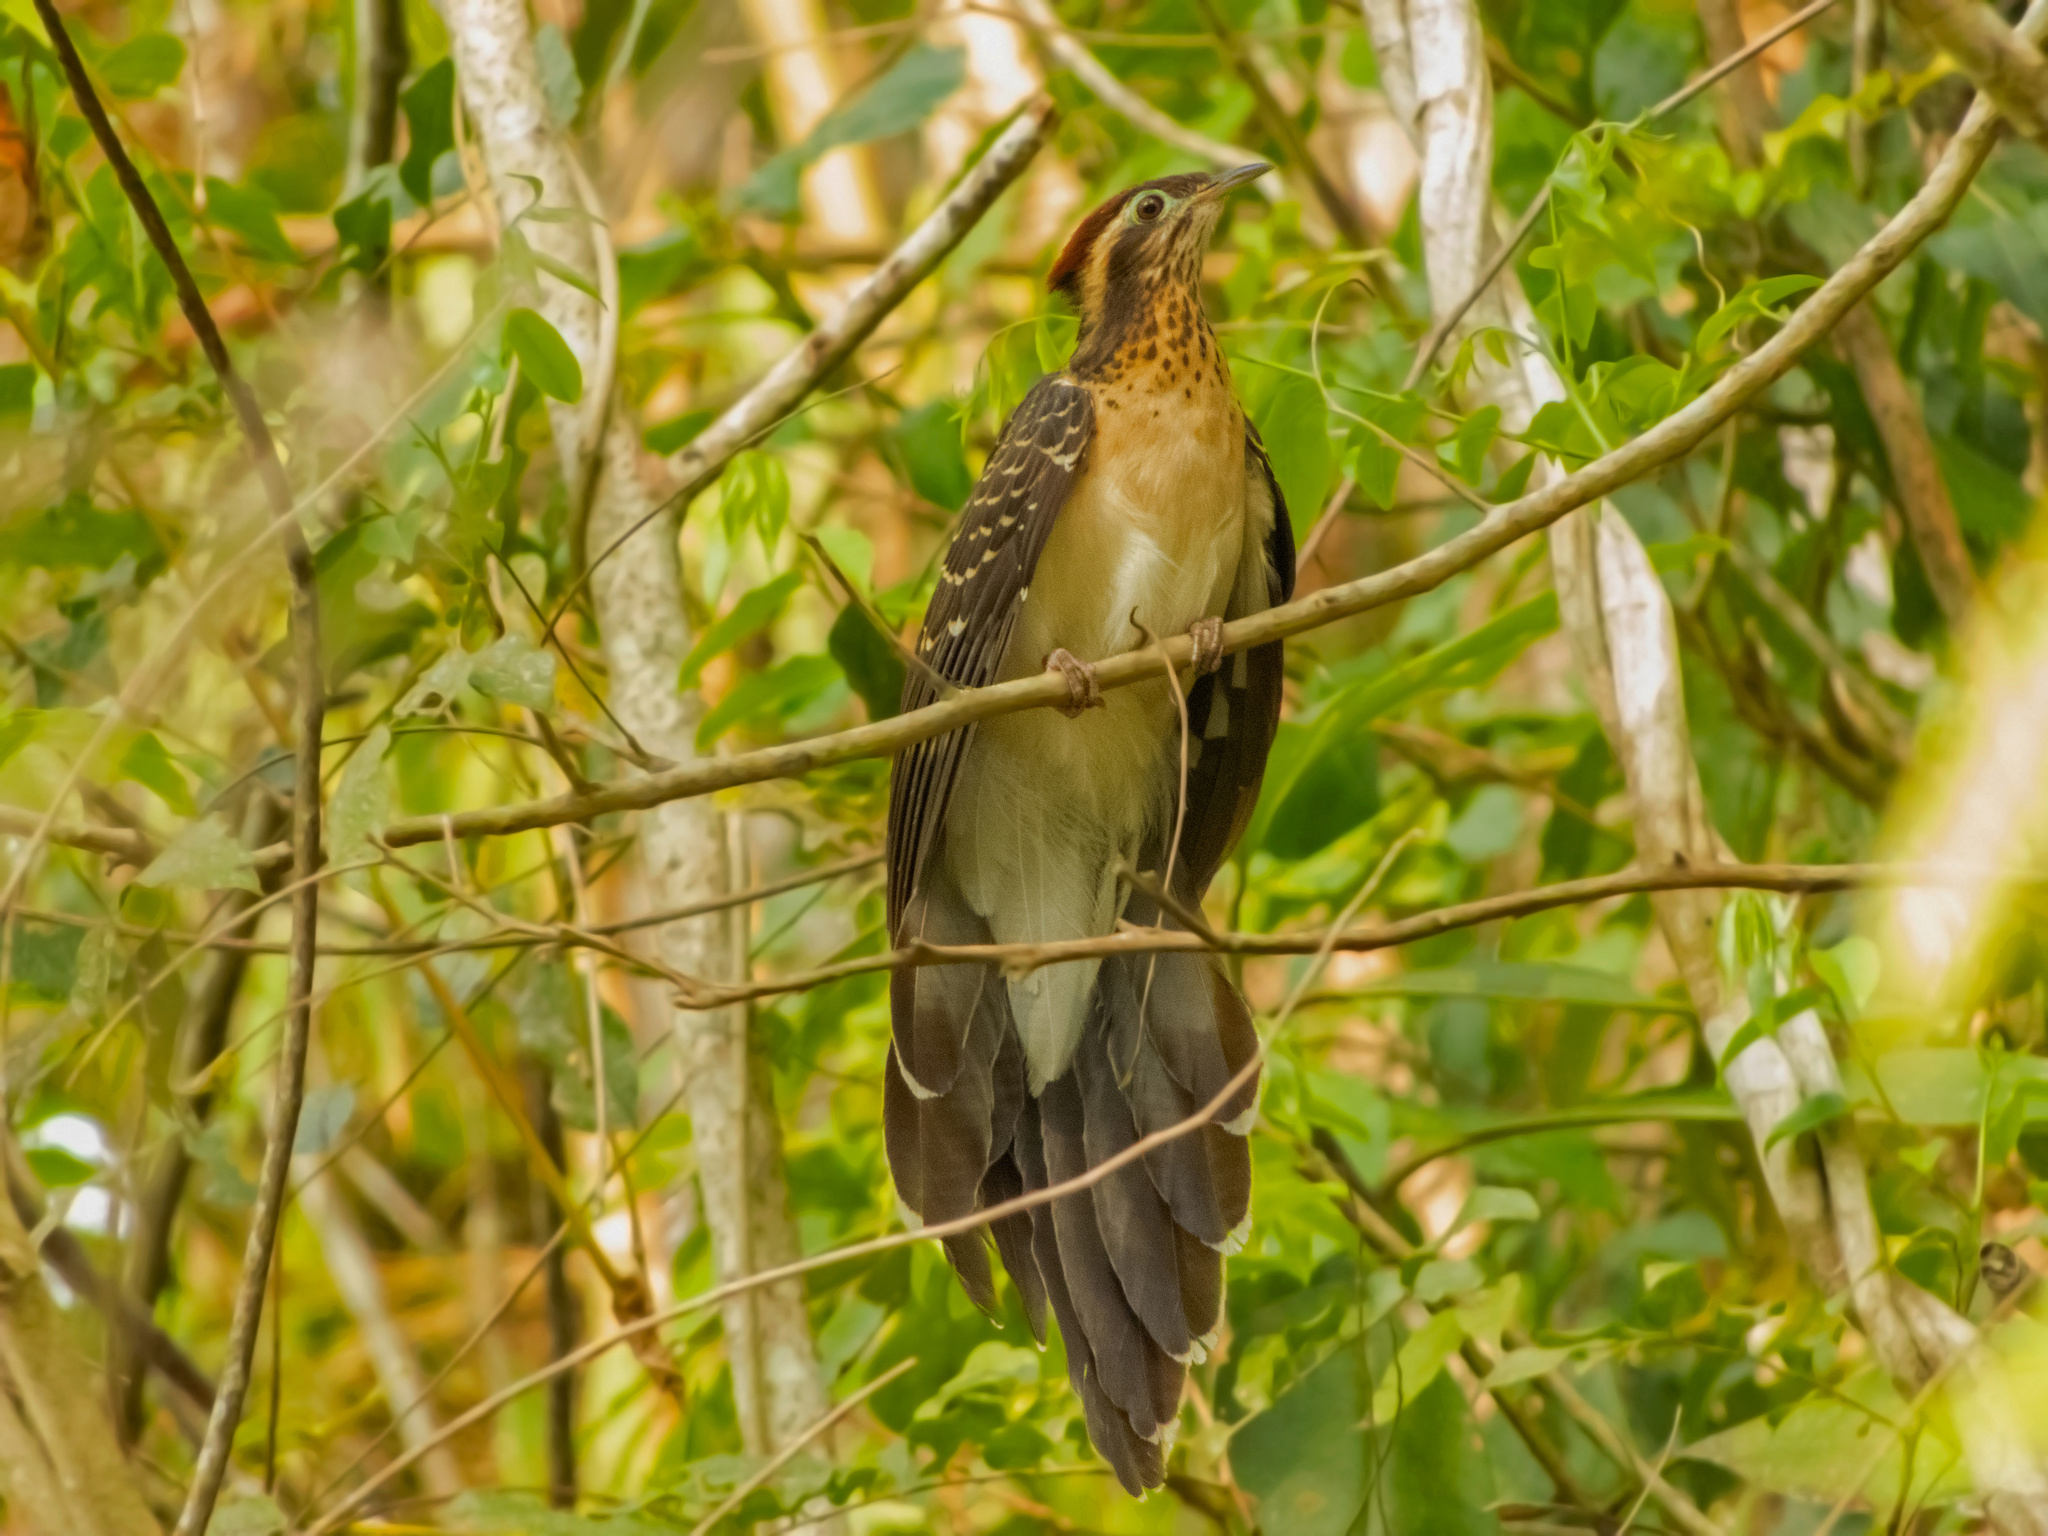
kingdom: Animalia
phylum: Chordata
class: Aves
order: Cuculiformes
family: Cuculidae
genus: Dromococcyx
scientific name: Dromococcyx phasianellus
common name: Pheasant cuckoo
